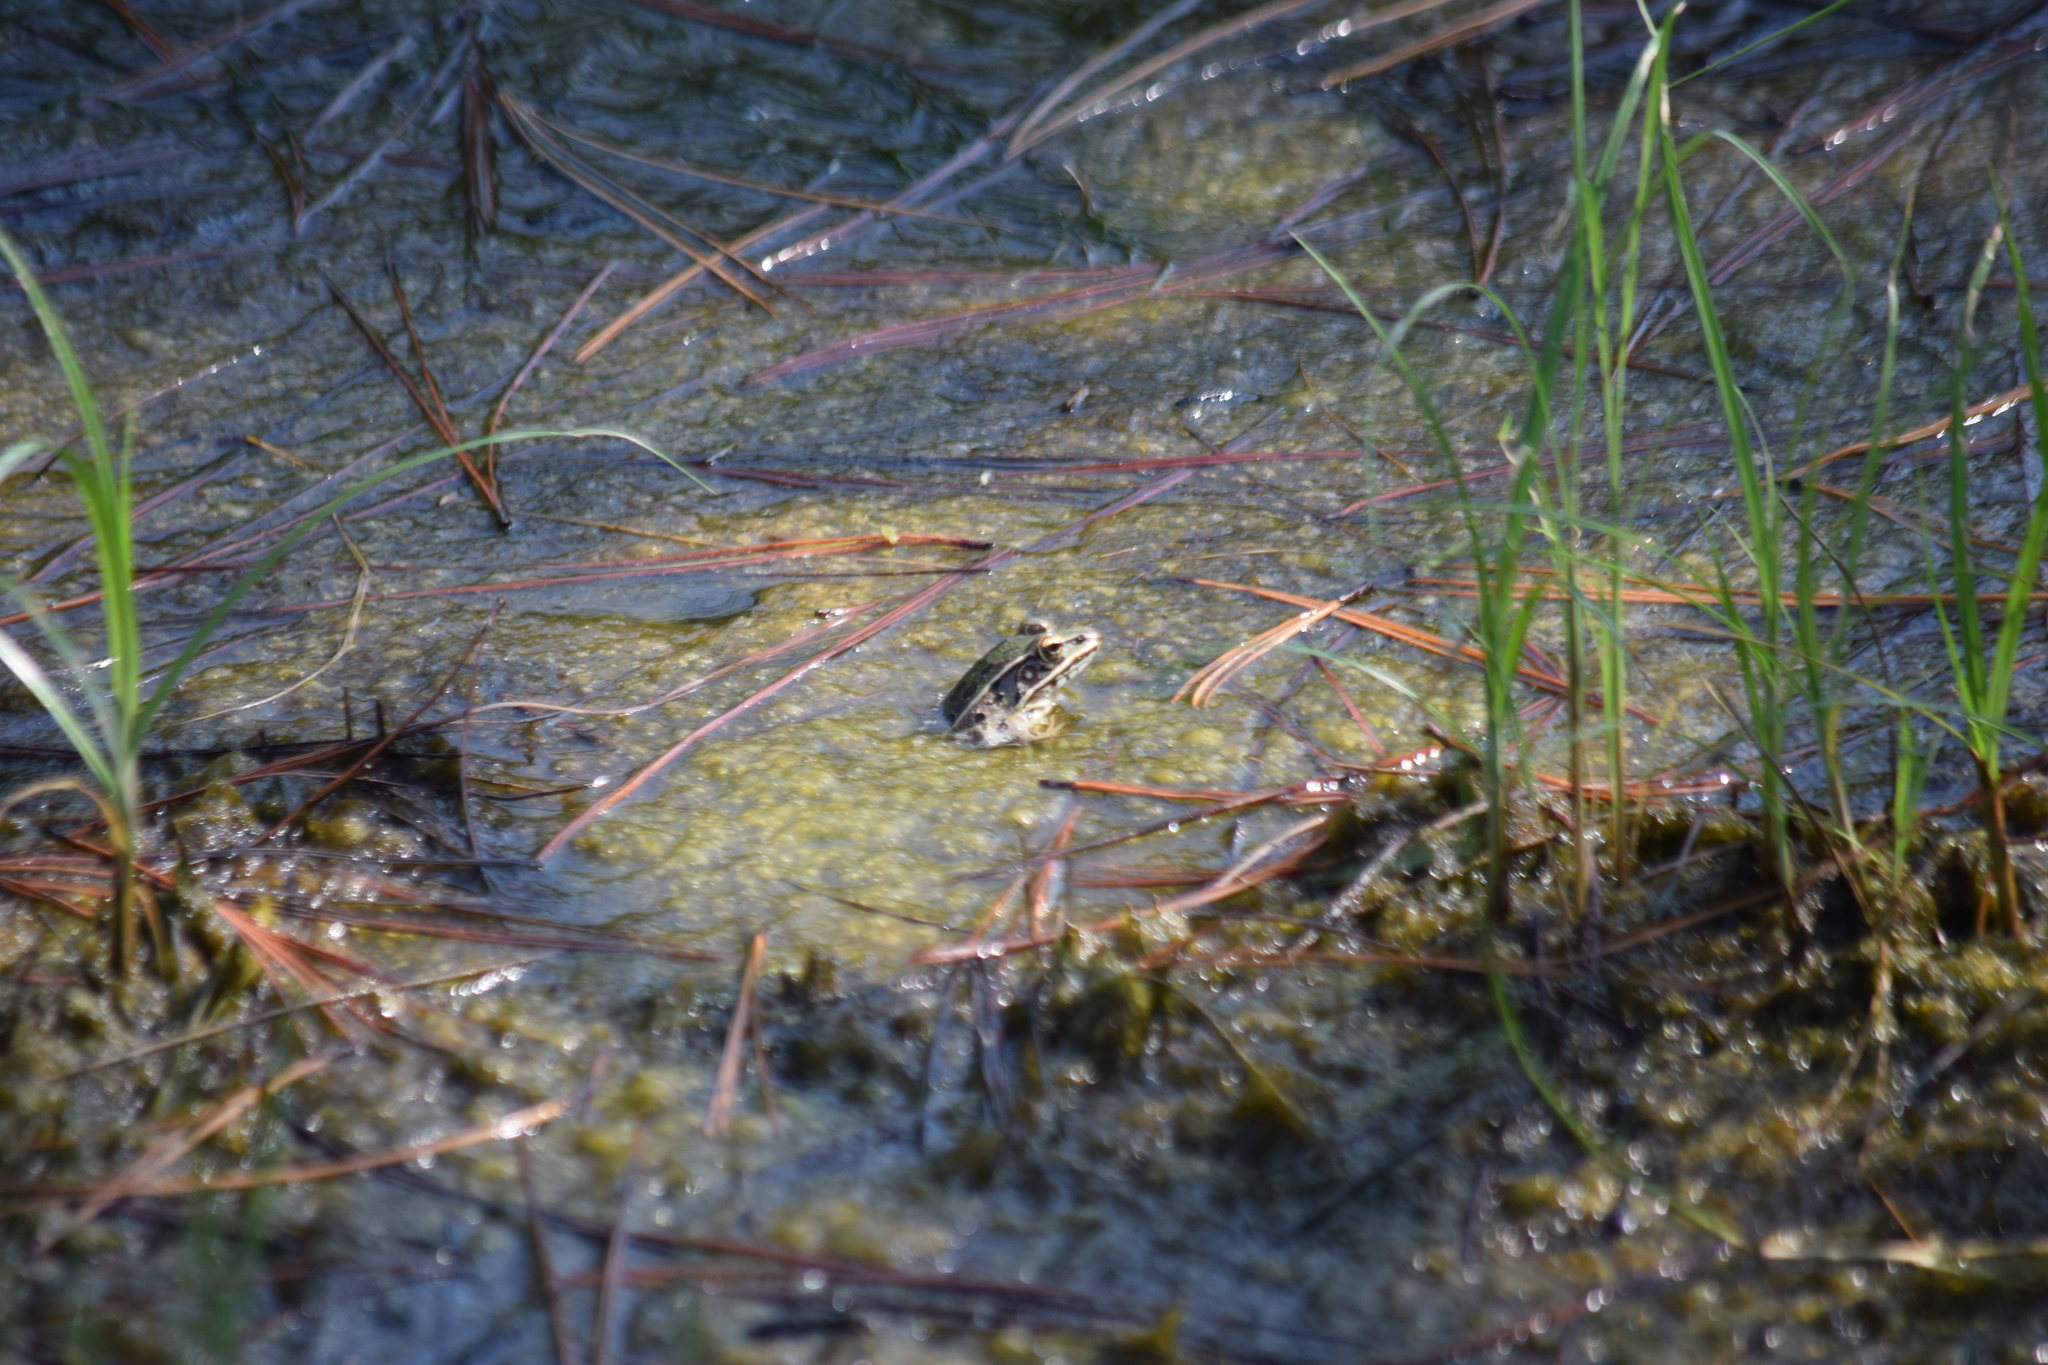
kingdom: Animalia
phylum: Chordata
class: Amphibia
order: Anura
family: Ranidae
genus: Lithobates
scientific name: Lithobates sphenocephalus
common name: Southern leopard frog
